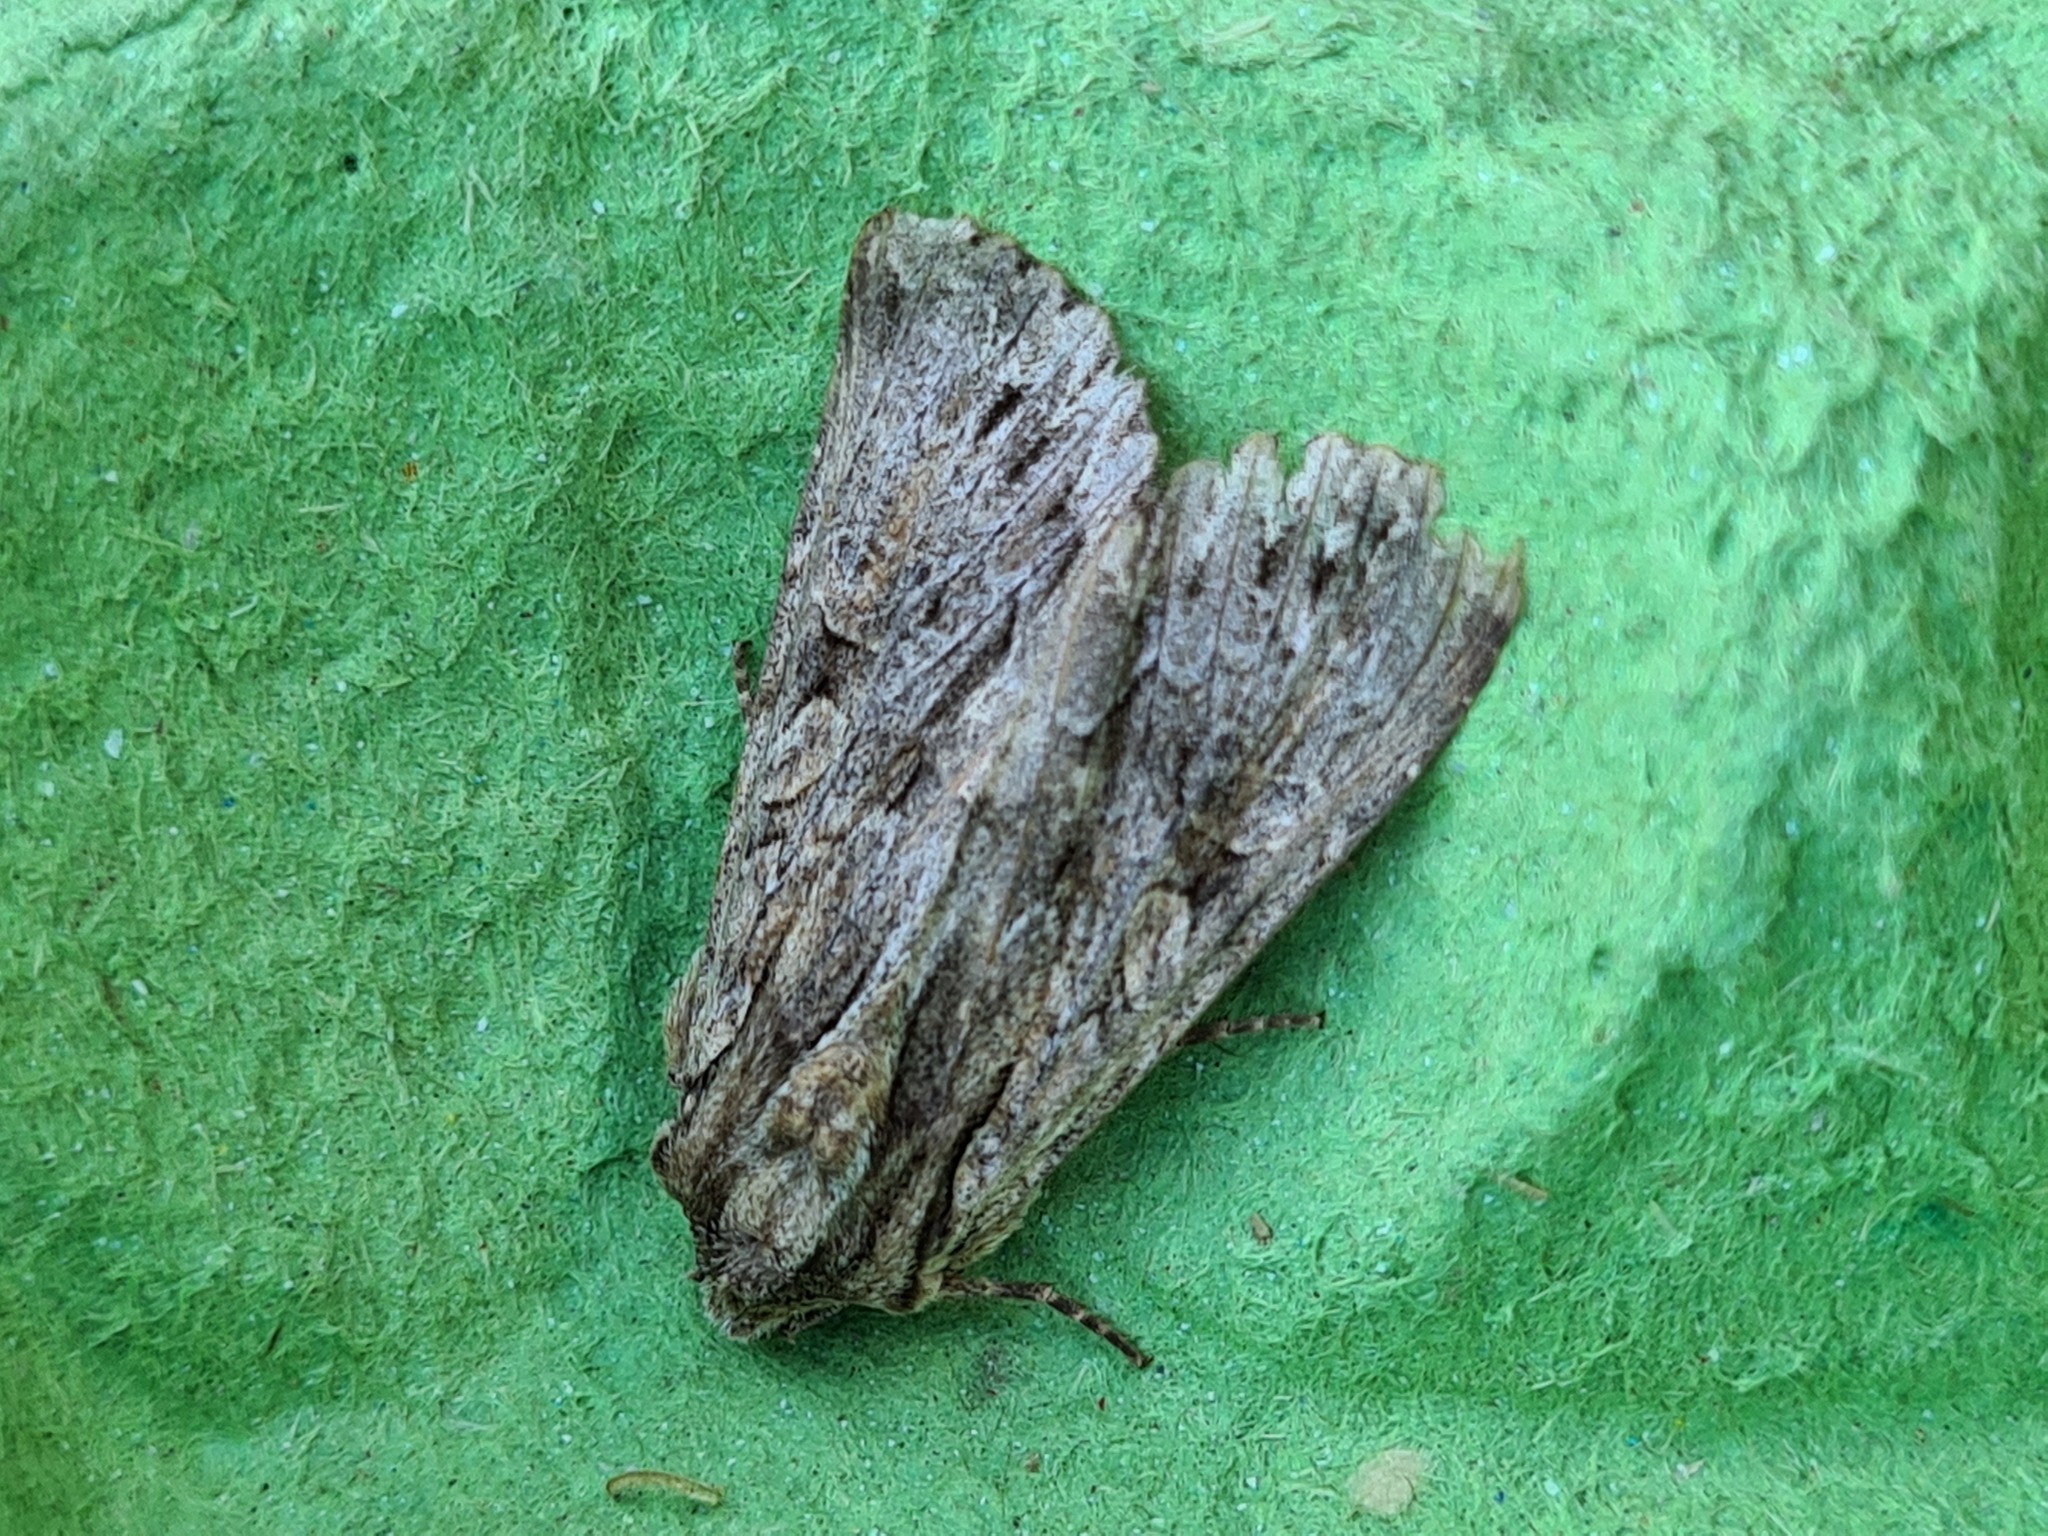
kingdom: Animalia
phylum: Arthropoda
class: Insecta
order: Lepidoptera
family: Noctuidae
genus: Apamea
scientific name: Apamea monoglypha
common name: Dark arches
